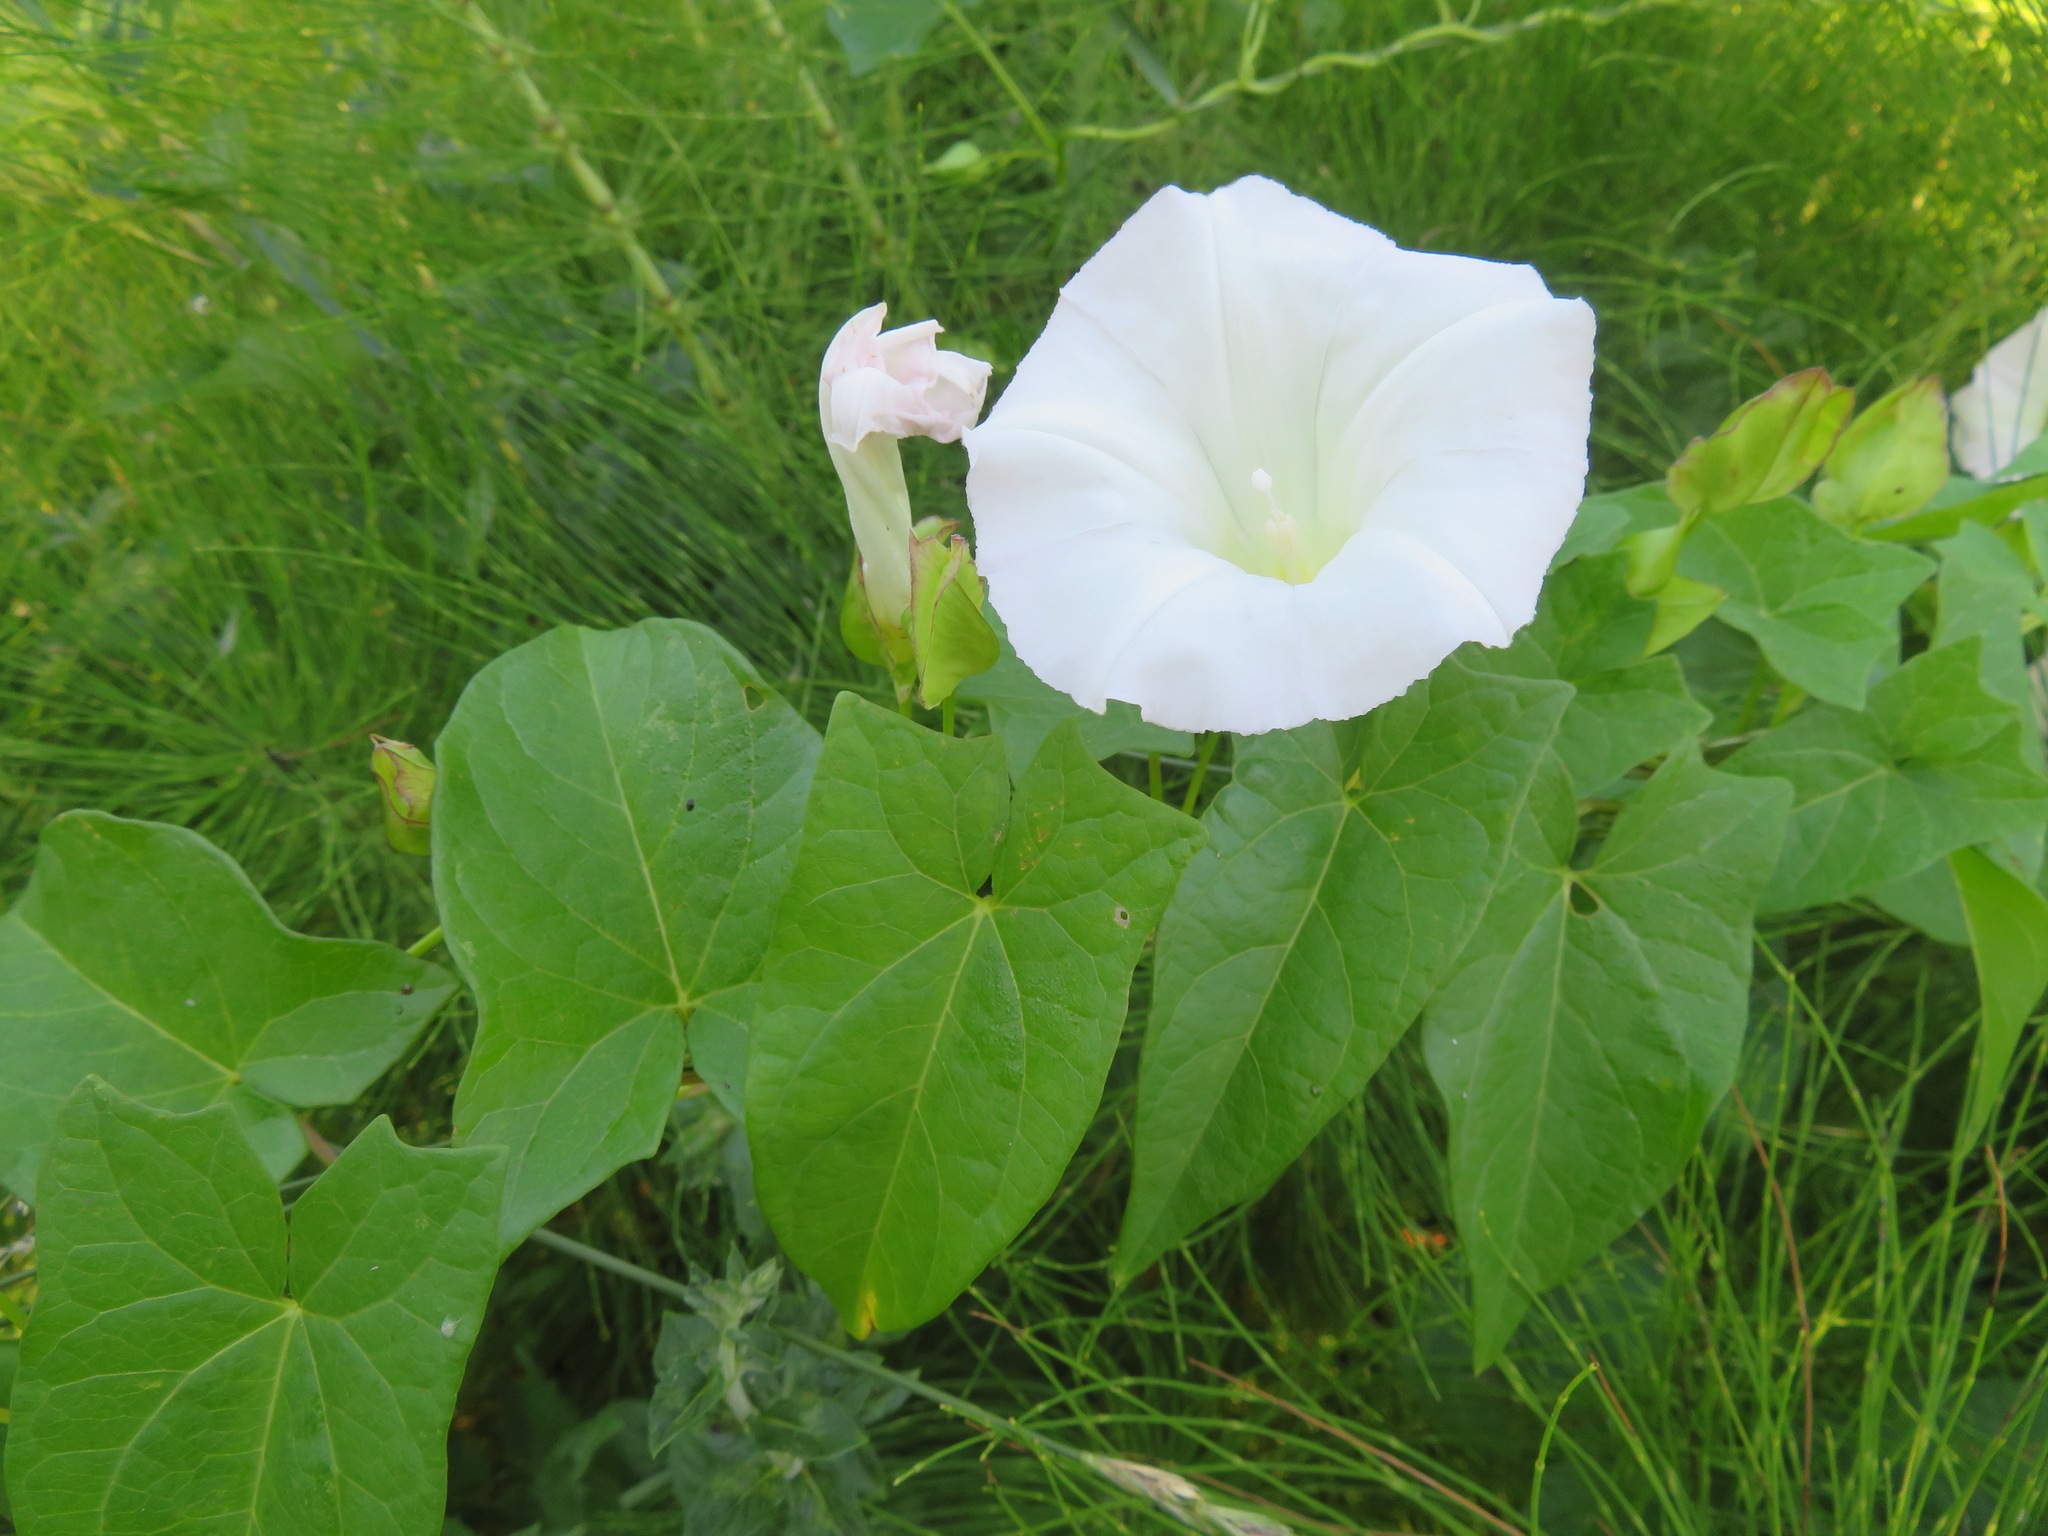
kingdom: Plantae
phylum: Tracheophyta
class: Magnoliopsida
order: Solanales
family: Convolvulaceae
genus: Calystegia
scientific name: Calystegia sepium
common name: Hedge bindweed
